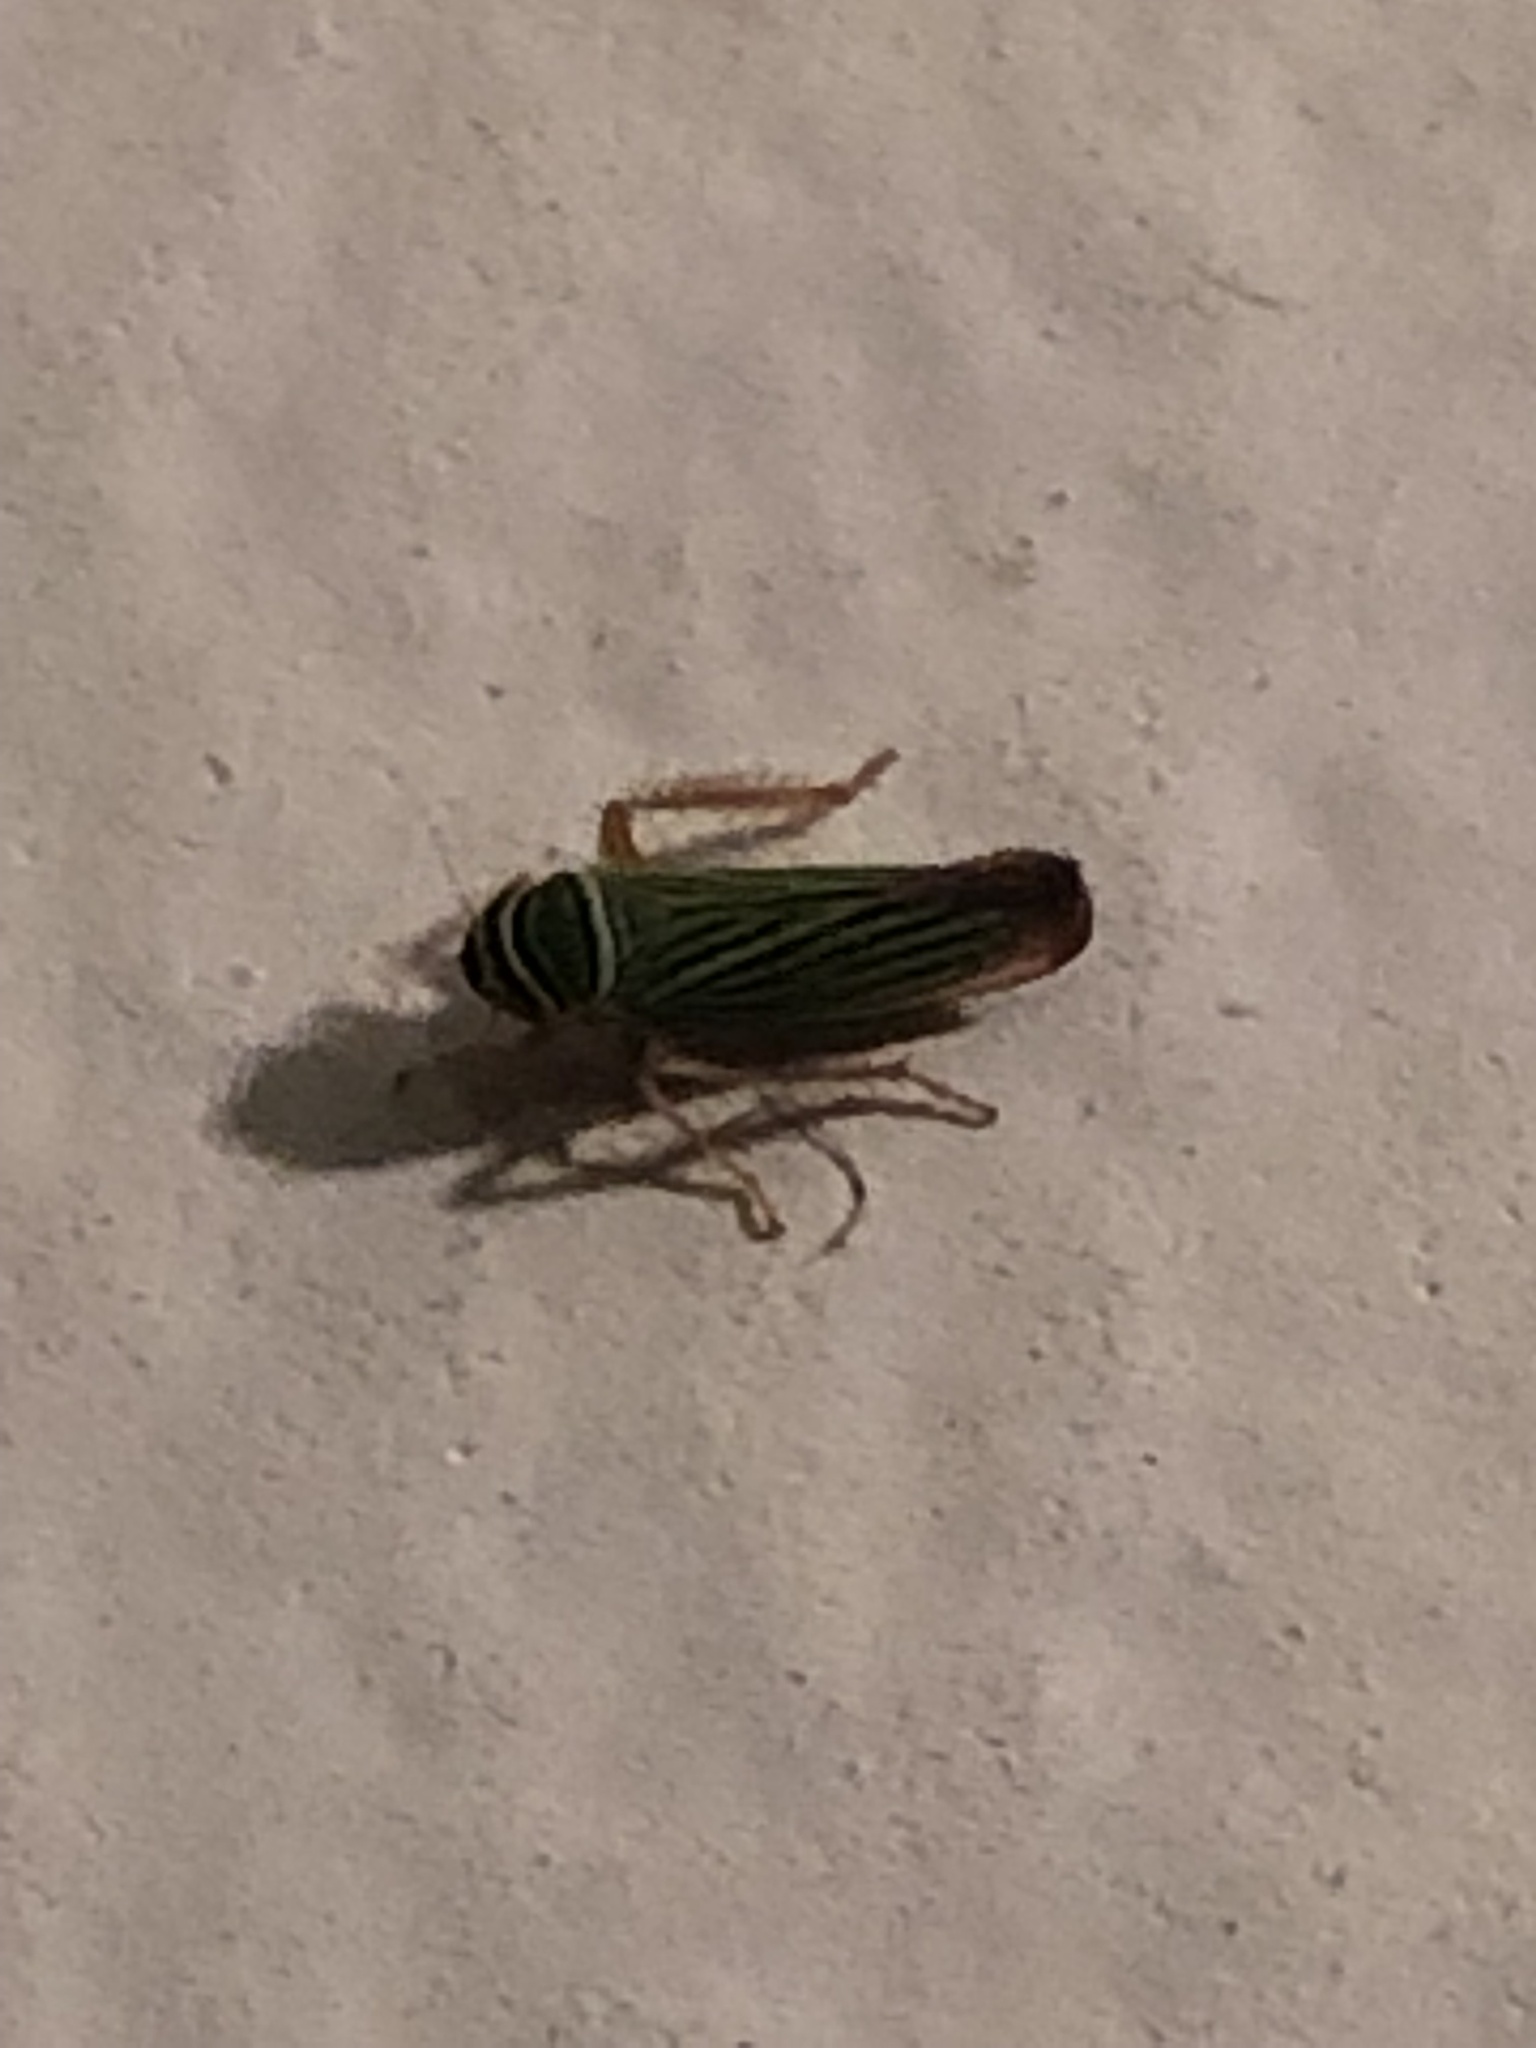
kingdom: Animalia
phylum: Arthropoda
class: Insecta
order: Hemiptera
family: Cicadellidae
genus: Tylozygus
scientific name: Tylozygus bifidus
